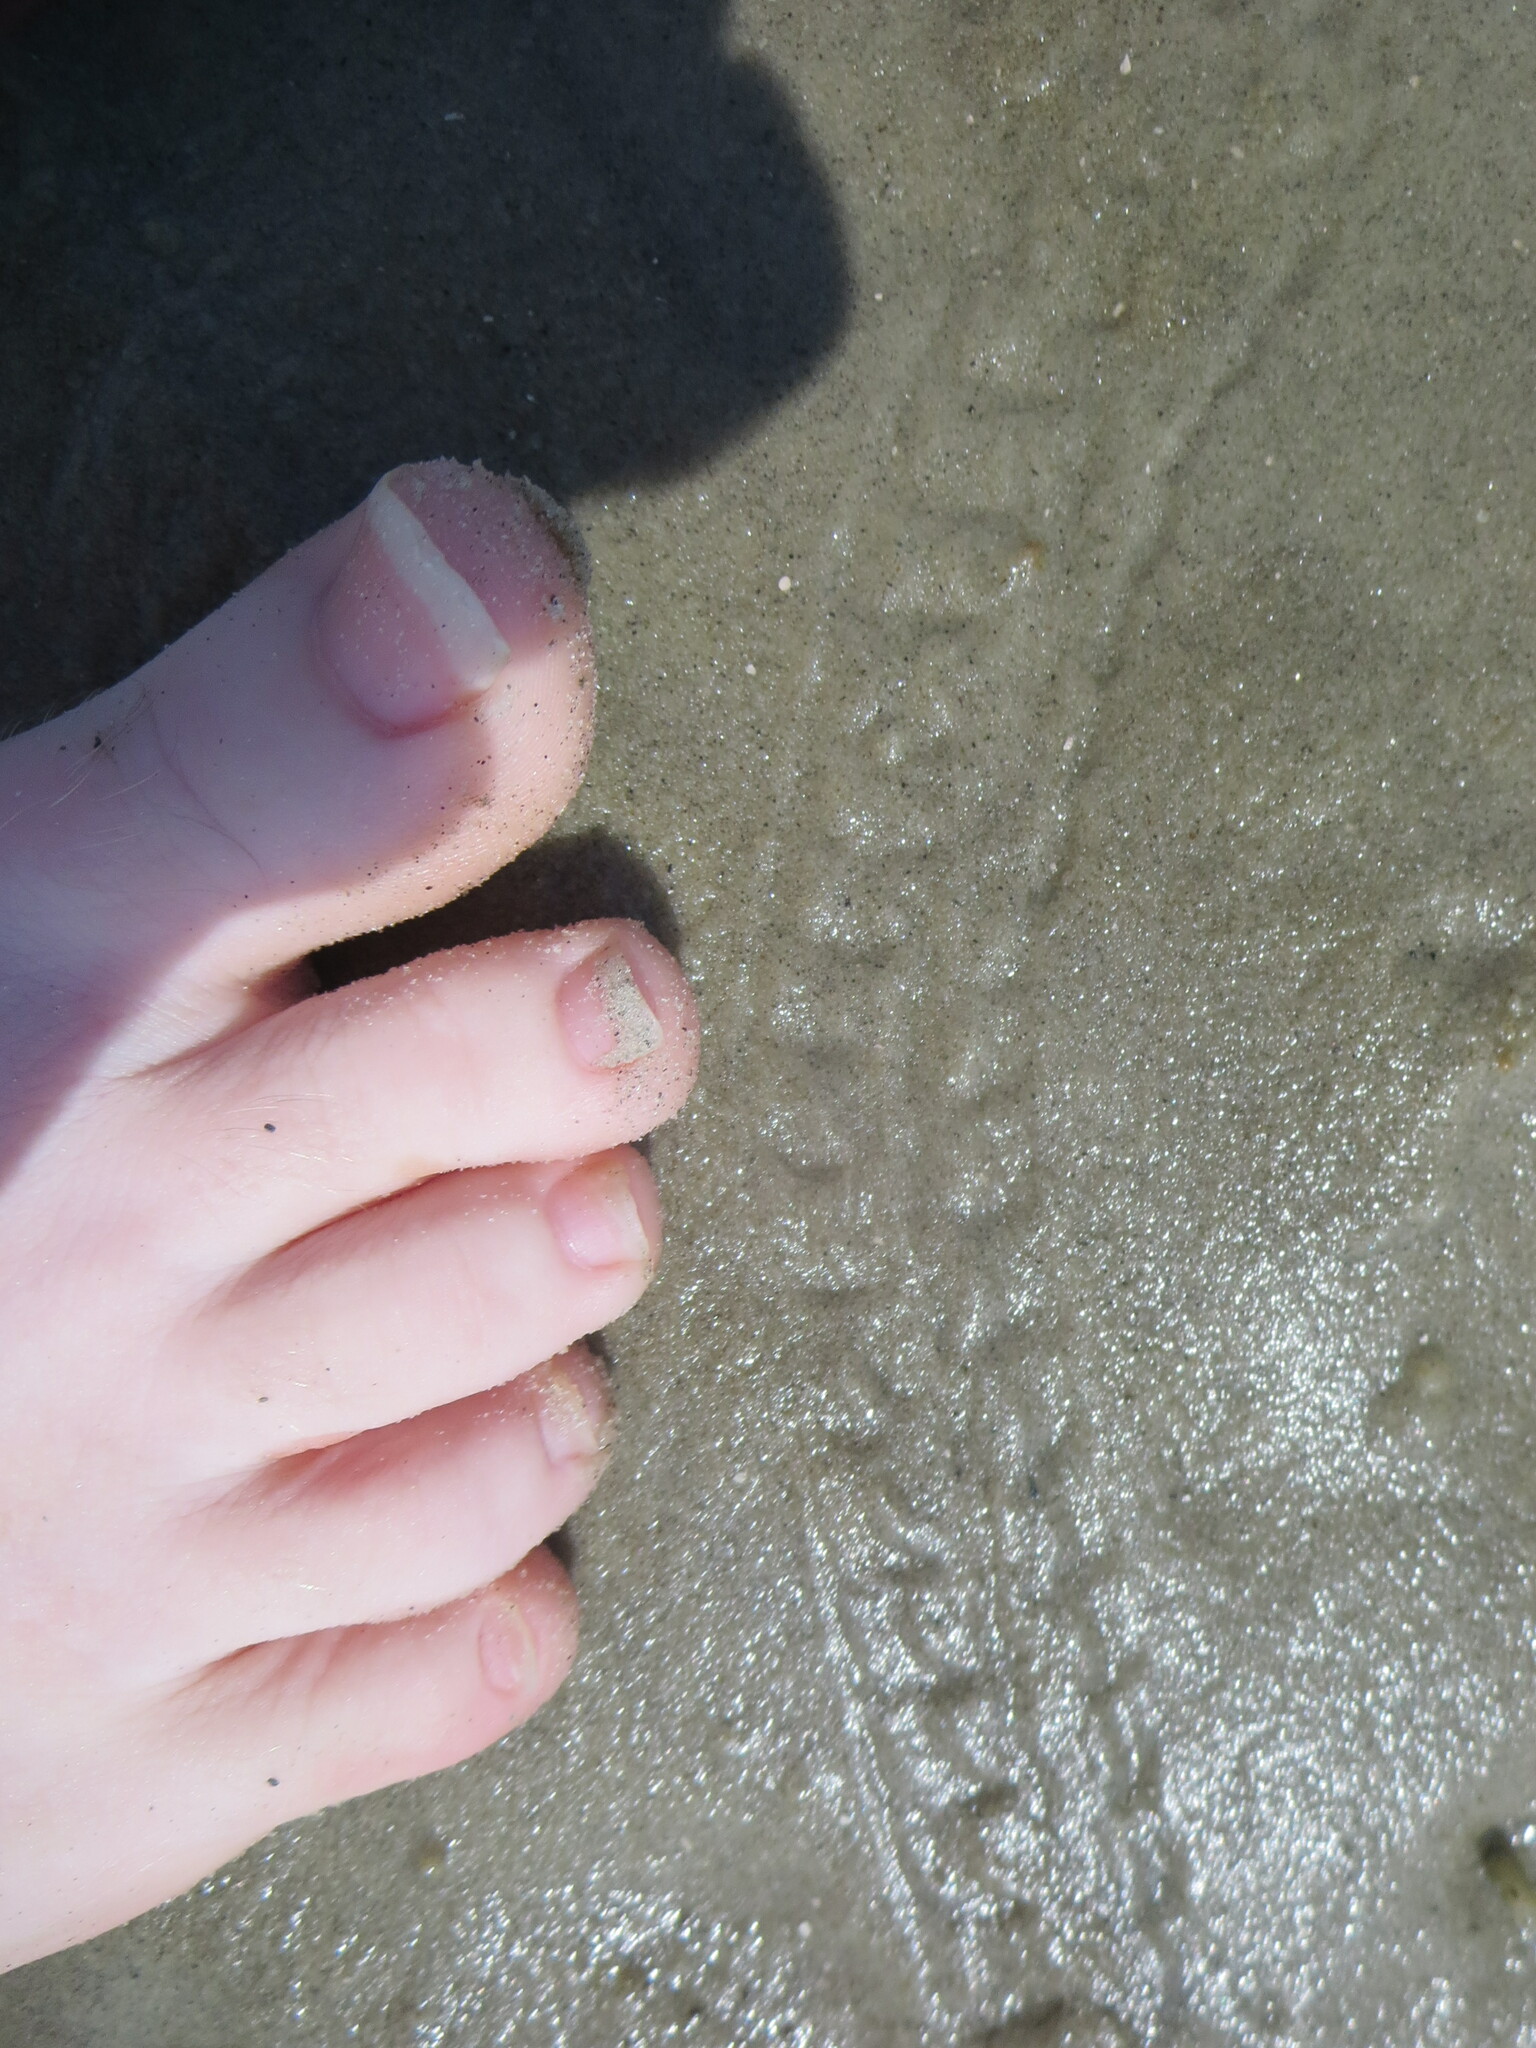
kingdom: Animalia
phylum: Arthropoda
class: Malacostraca
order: Decapoda
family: Diogenidae
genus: Clibanarius
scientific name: Clibanarius vittatus
